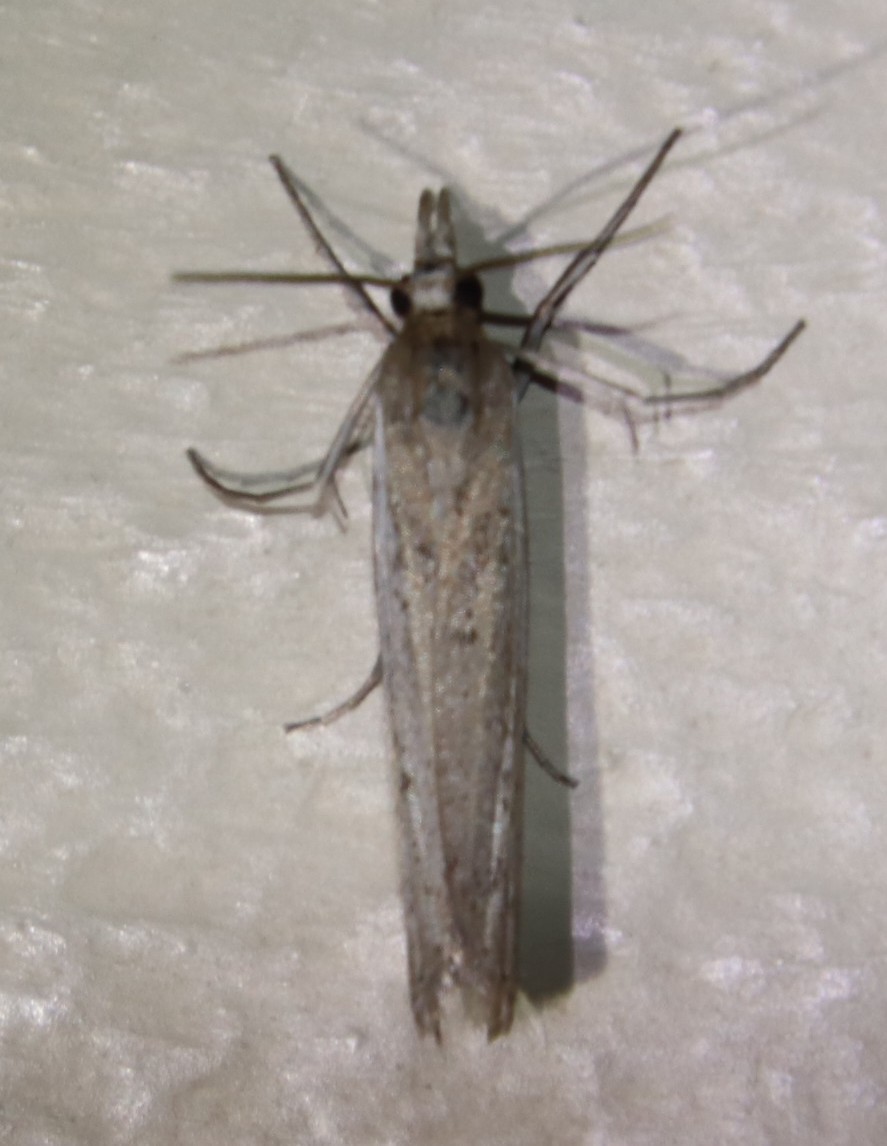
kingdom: Animalia
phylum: Arthropoda
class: Insecta
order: Lepidoptera
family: Crambidae
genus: Crambus
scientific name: Crambus ellipticellus
